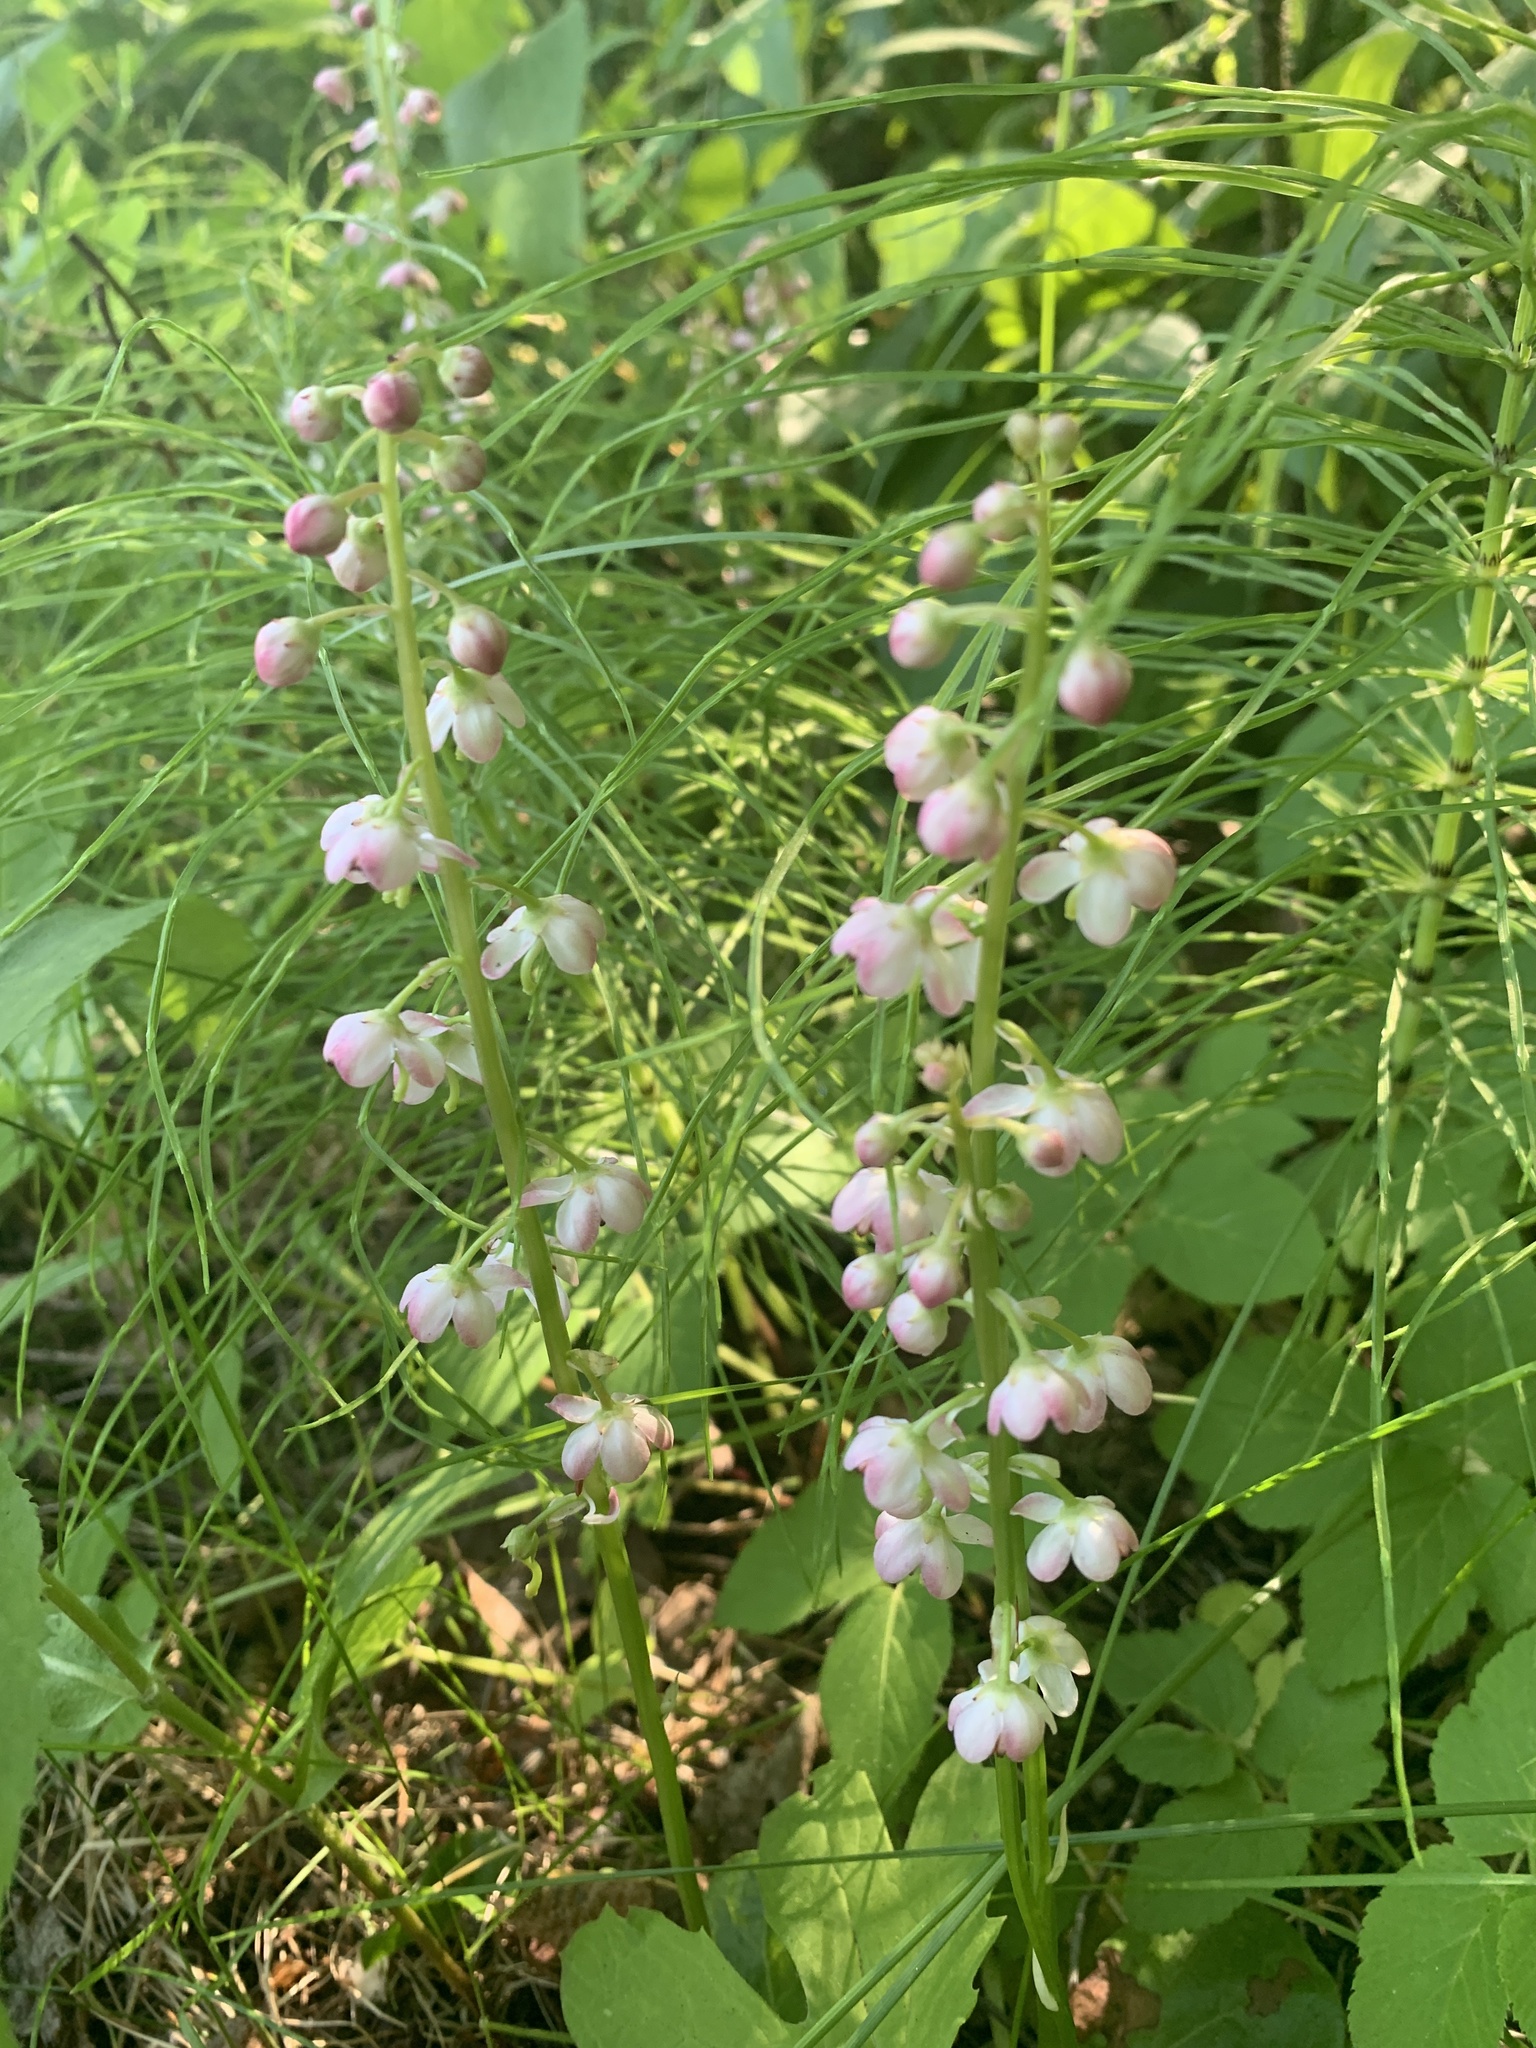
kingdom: Plantae
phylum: Tracheophyta
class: Magnoliopsida
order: Ericales
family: Ericaceae
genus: Pyrola
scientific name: Pyrola asarifolia
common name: Bog wintergreen
